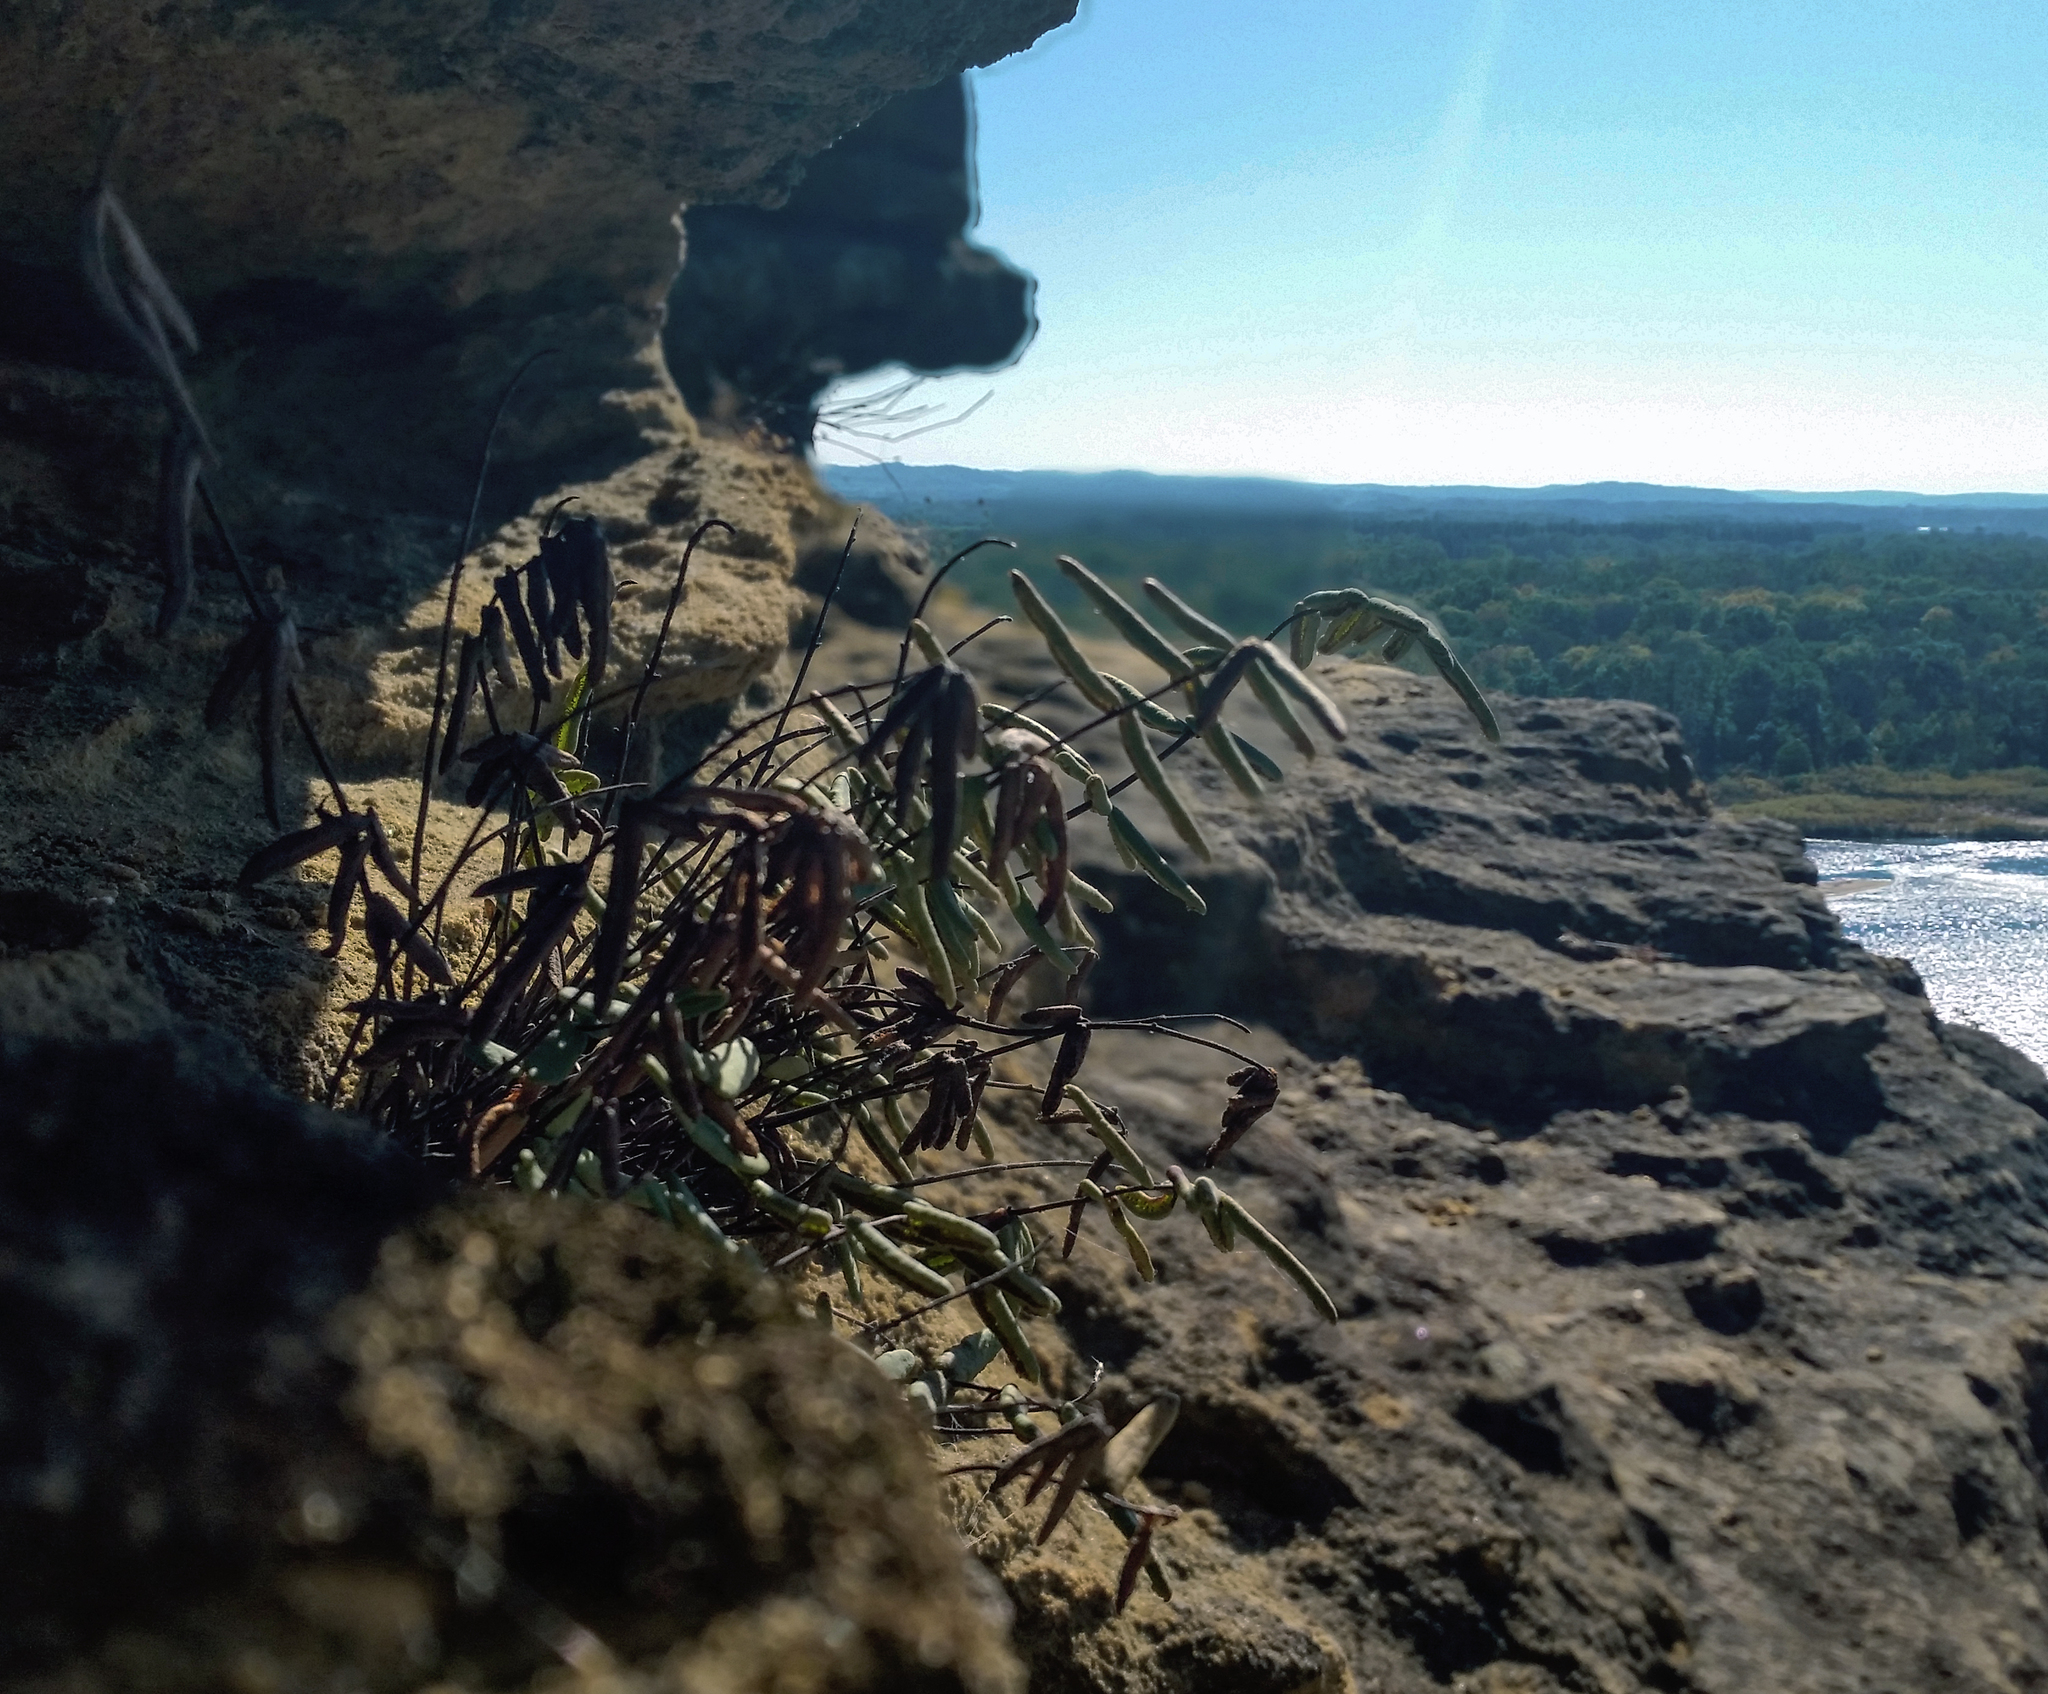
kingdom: Plantae
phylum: Tracheophyta
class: Polypodiopsida
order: Polypodiales
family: Pteridaceae
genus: Pellaea
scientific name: Pellaea glabella
